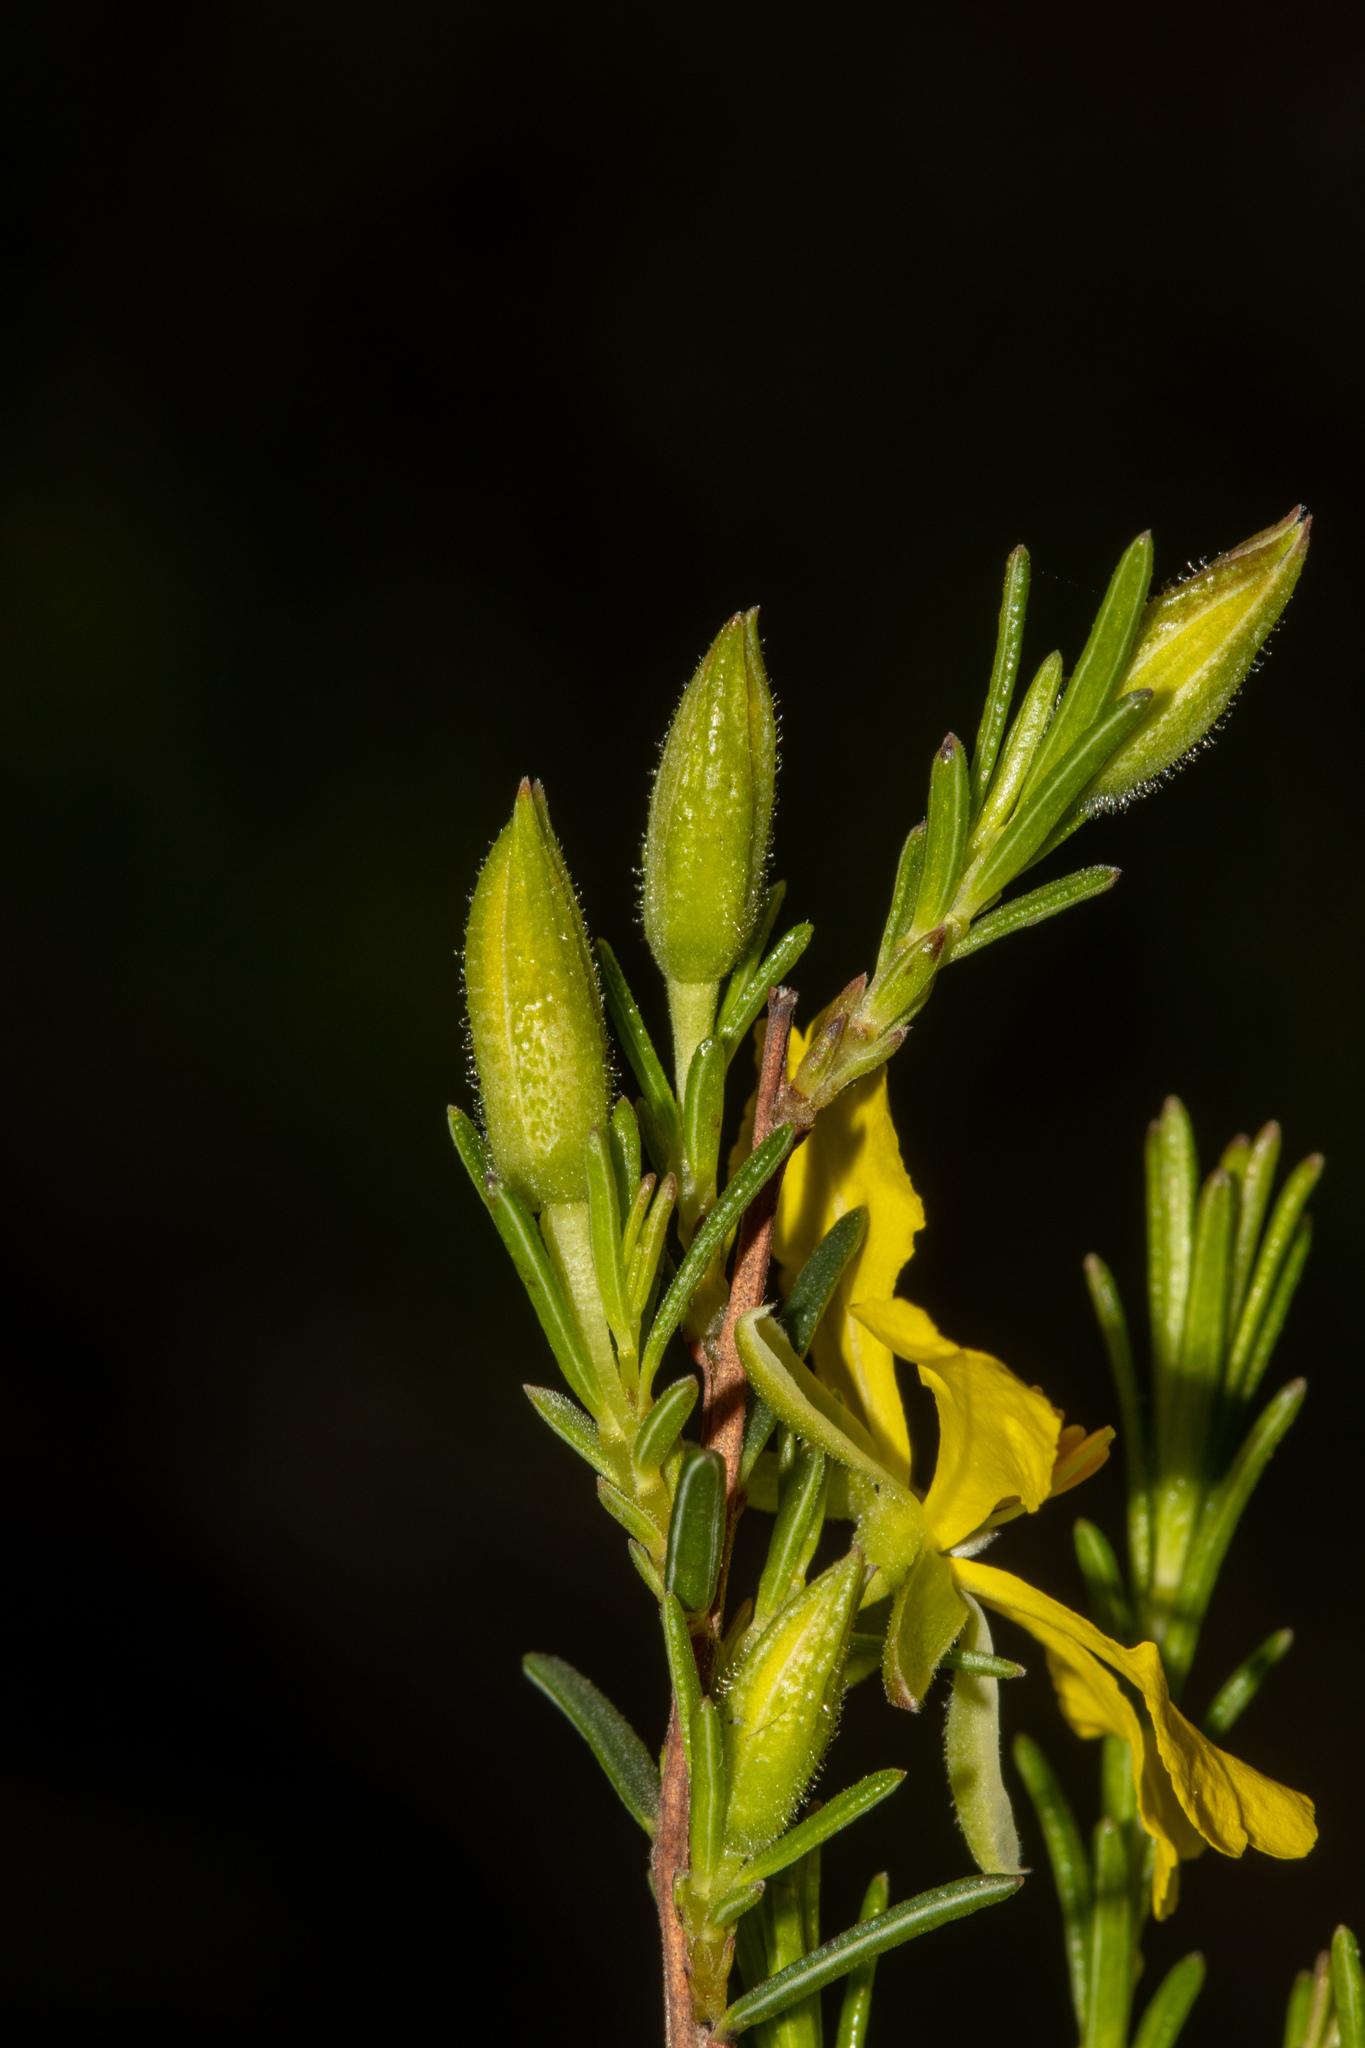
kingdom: Plantae
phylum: Tracheophyta
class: Magnoliopsida
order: Dilleniales
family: Dilleniaceae
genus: Hibbertia
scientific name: Hibbertia devitata
